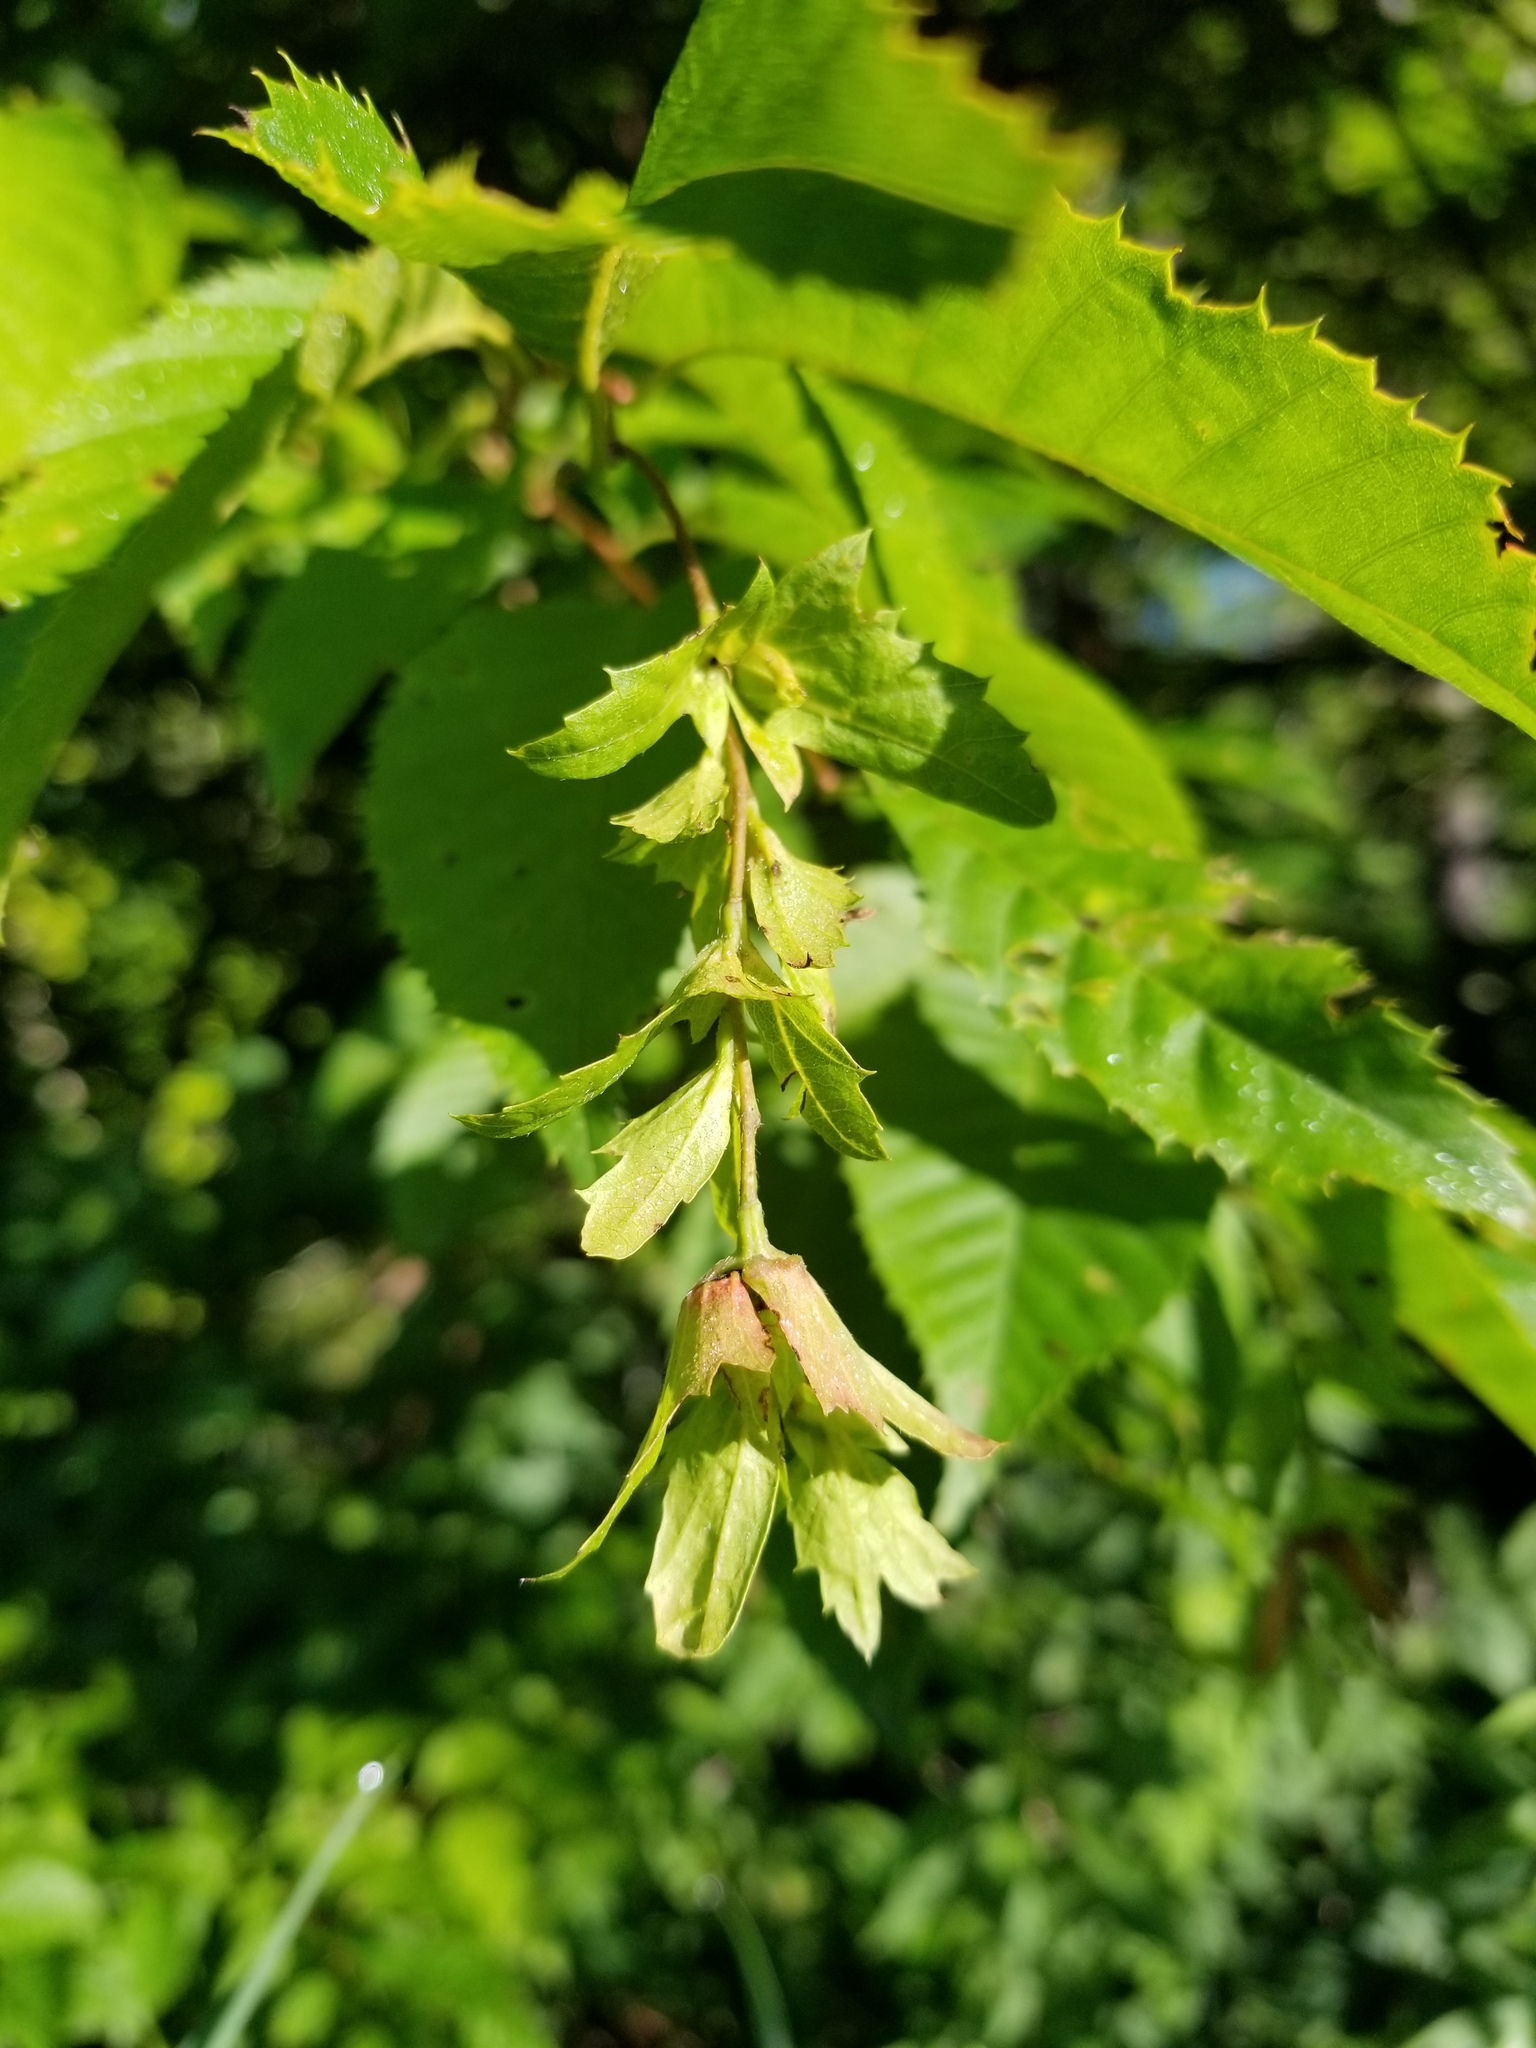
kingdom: Plantae
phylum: Tracheophyta
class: Magnoliopsida
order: Fagales
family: Betulaceae
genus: Carpinus
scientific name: Carpinus caroliniana
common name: American hornbeam
